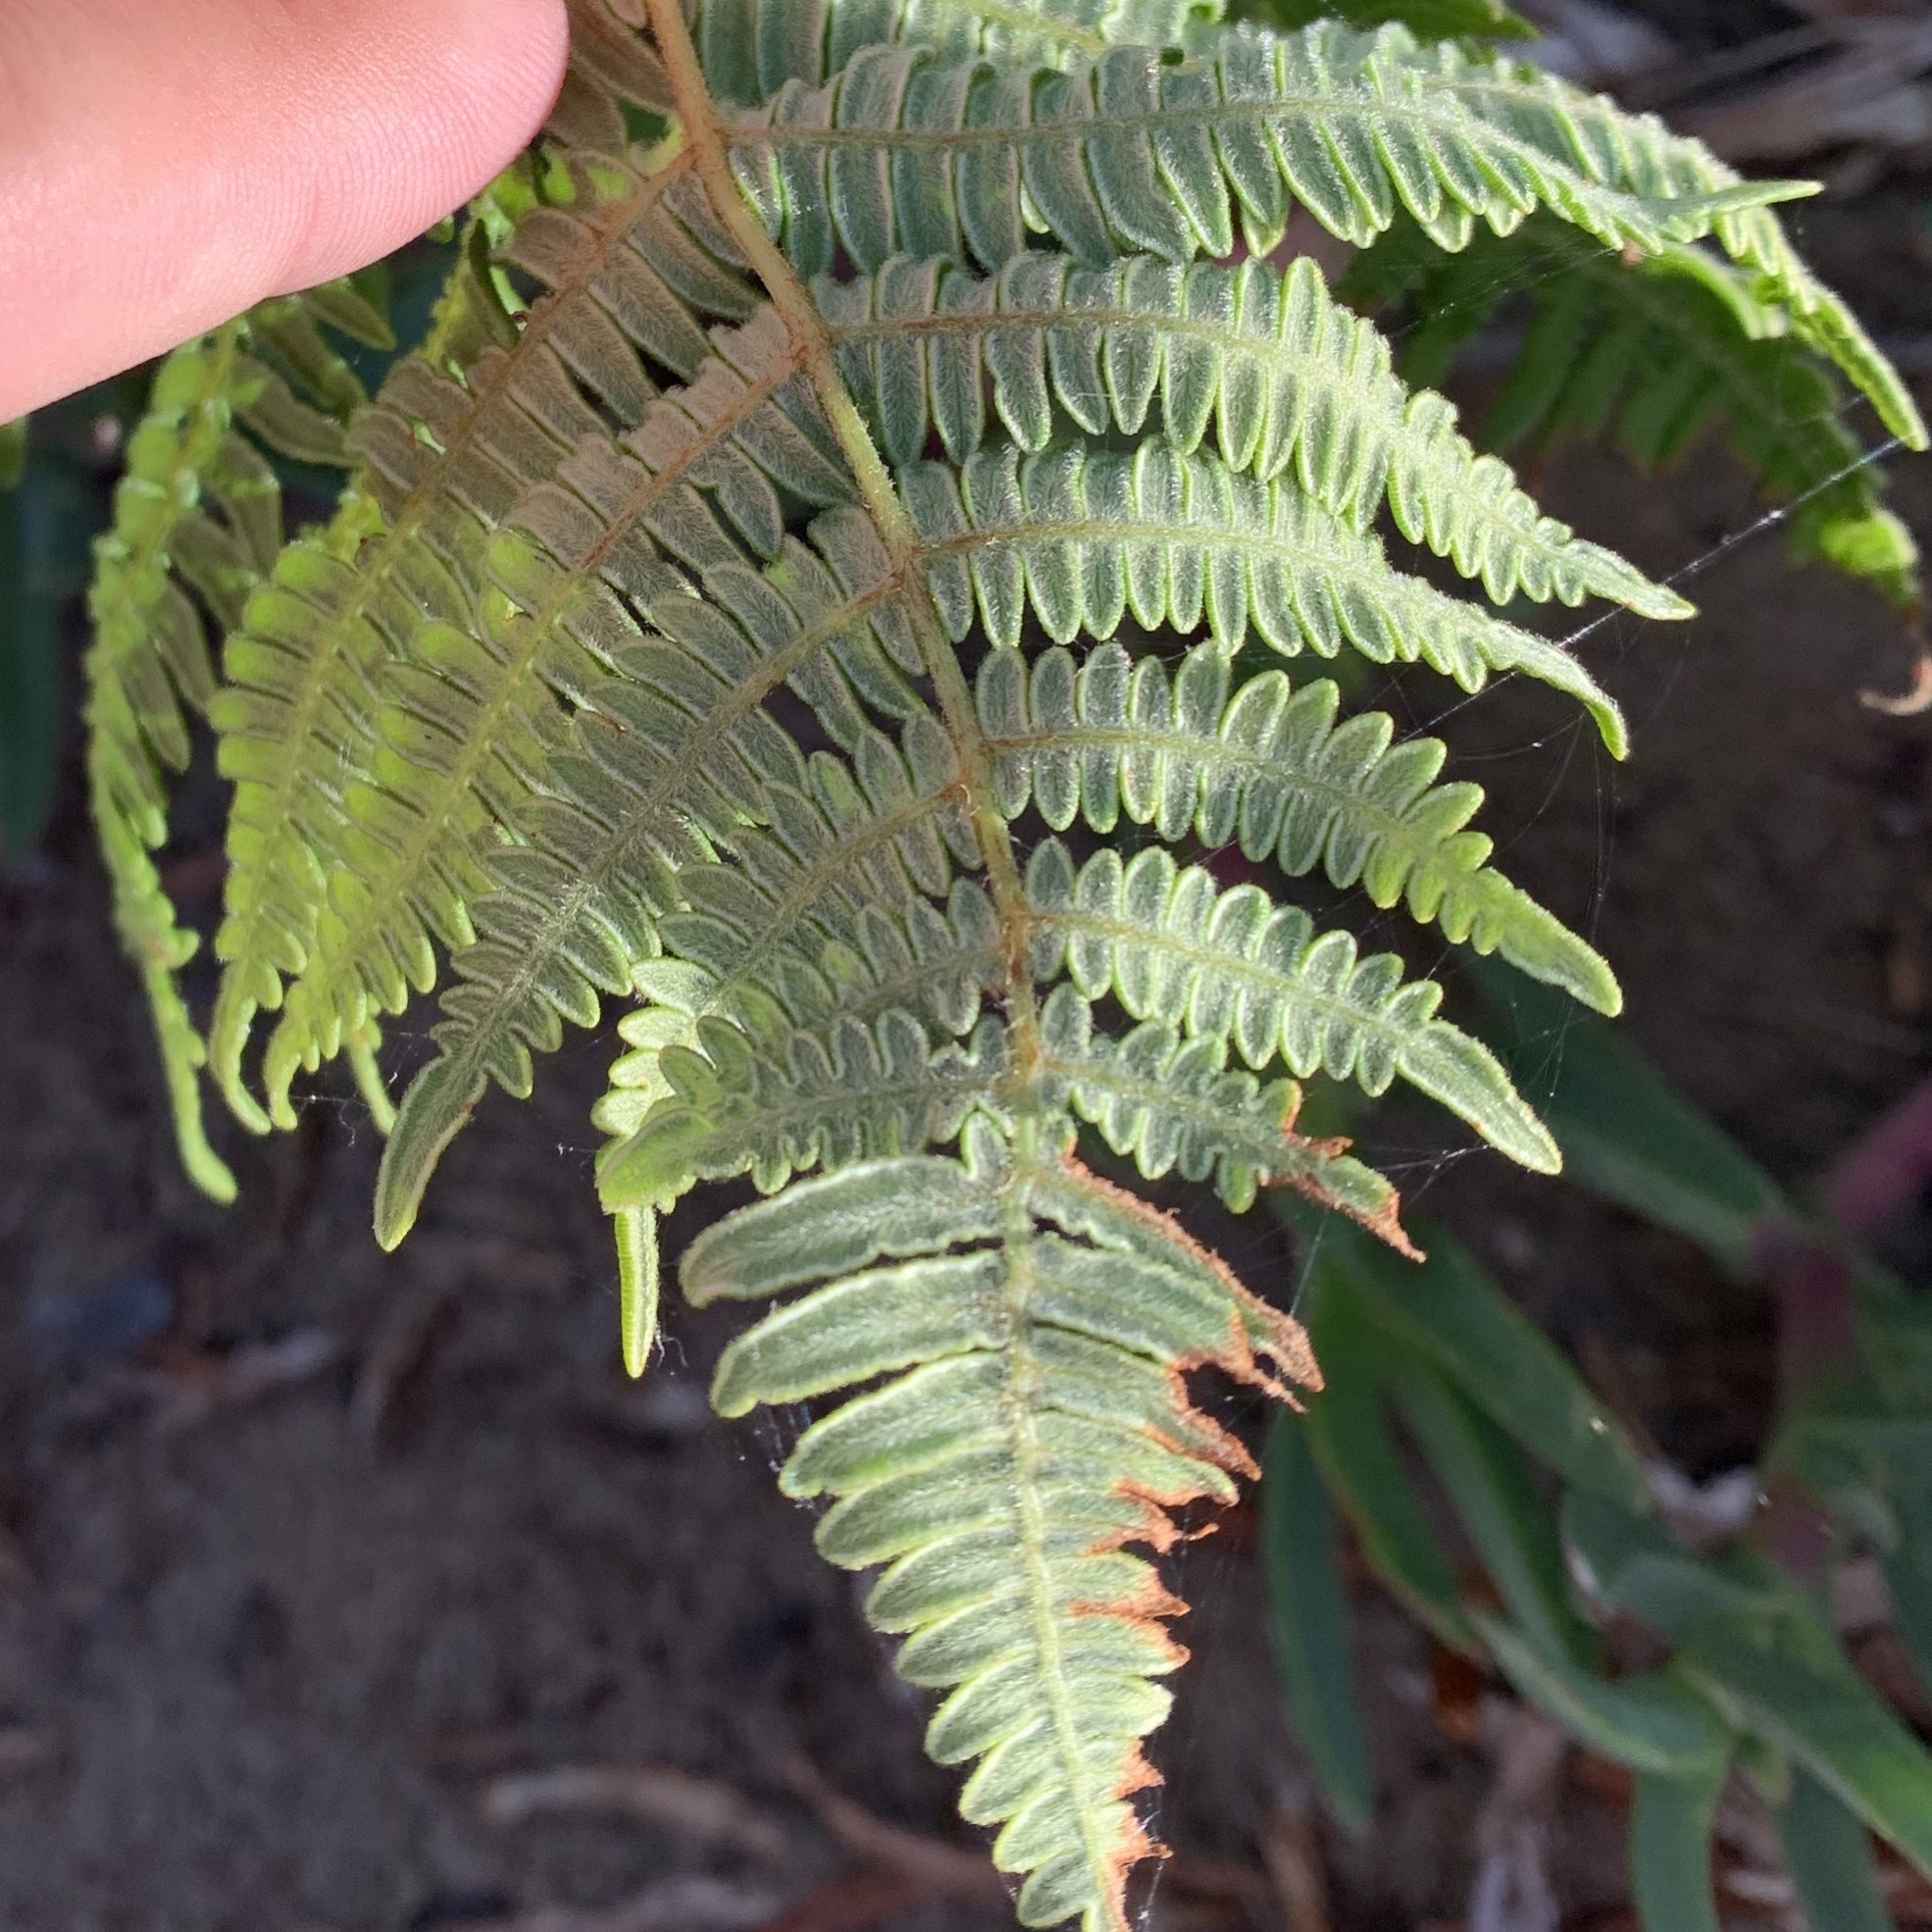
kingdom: Plantae
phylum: Tracheophyta
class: Polypodiopsida
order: Polypodiales
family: Dennstaedtiaceae
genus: Pteridium
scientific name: Pteridium aquilinum
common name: Bracken
